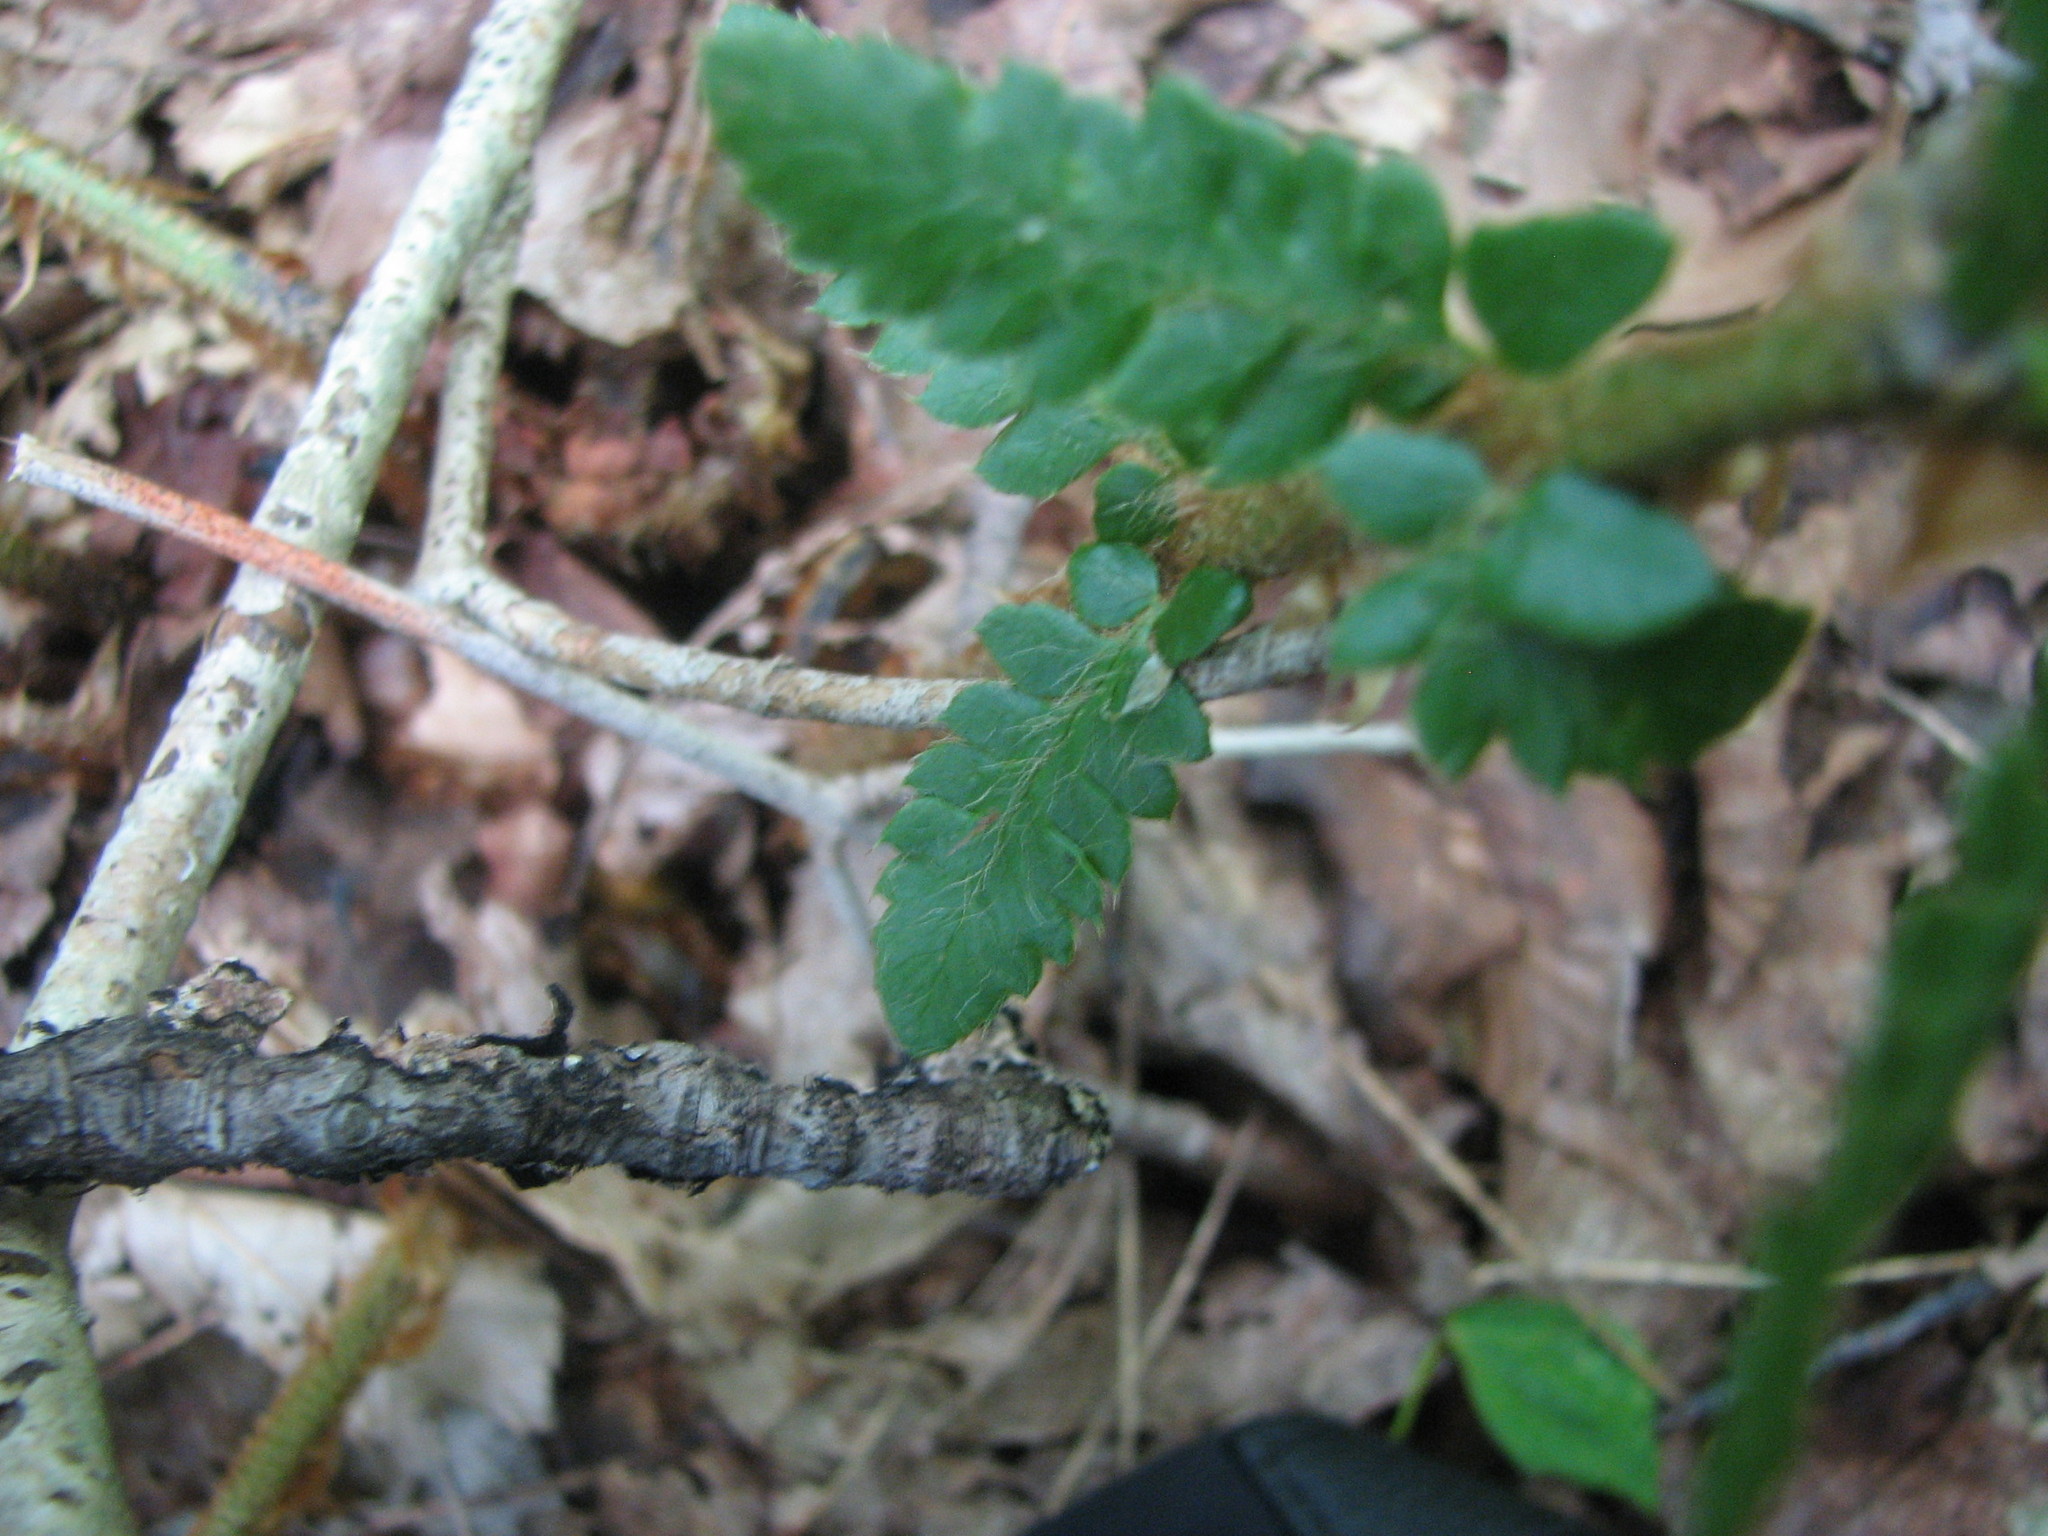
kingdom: Plantae
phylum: Tracheophyta
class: Polypodiopsida
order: Polypodiales
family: Dryopteridaceae
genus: Polystichum
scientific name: Polystichum potteri
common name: Potter's holly fern
